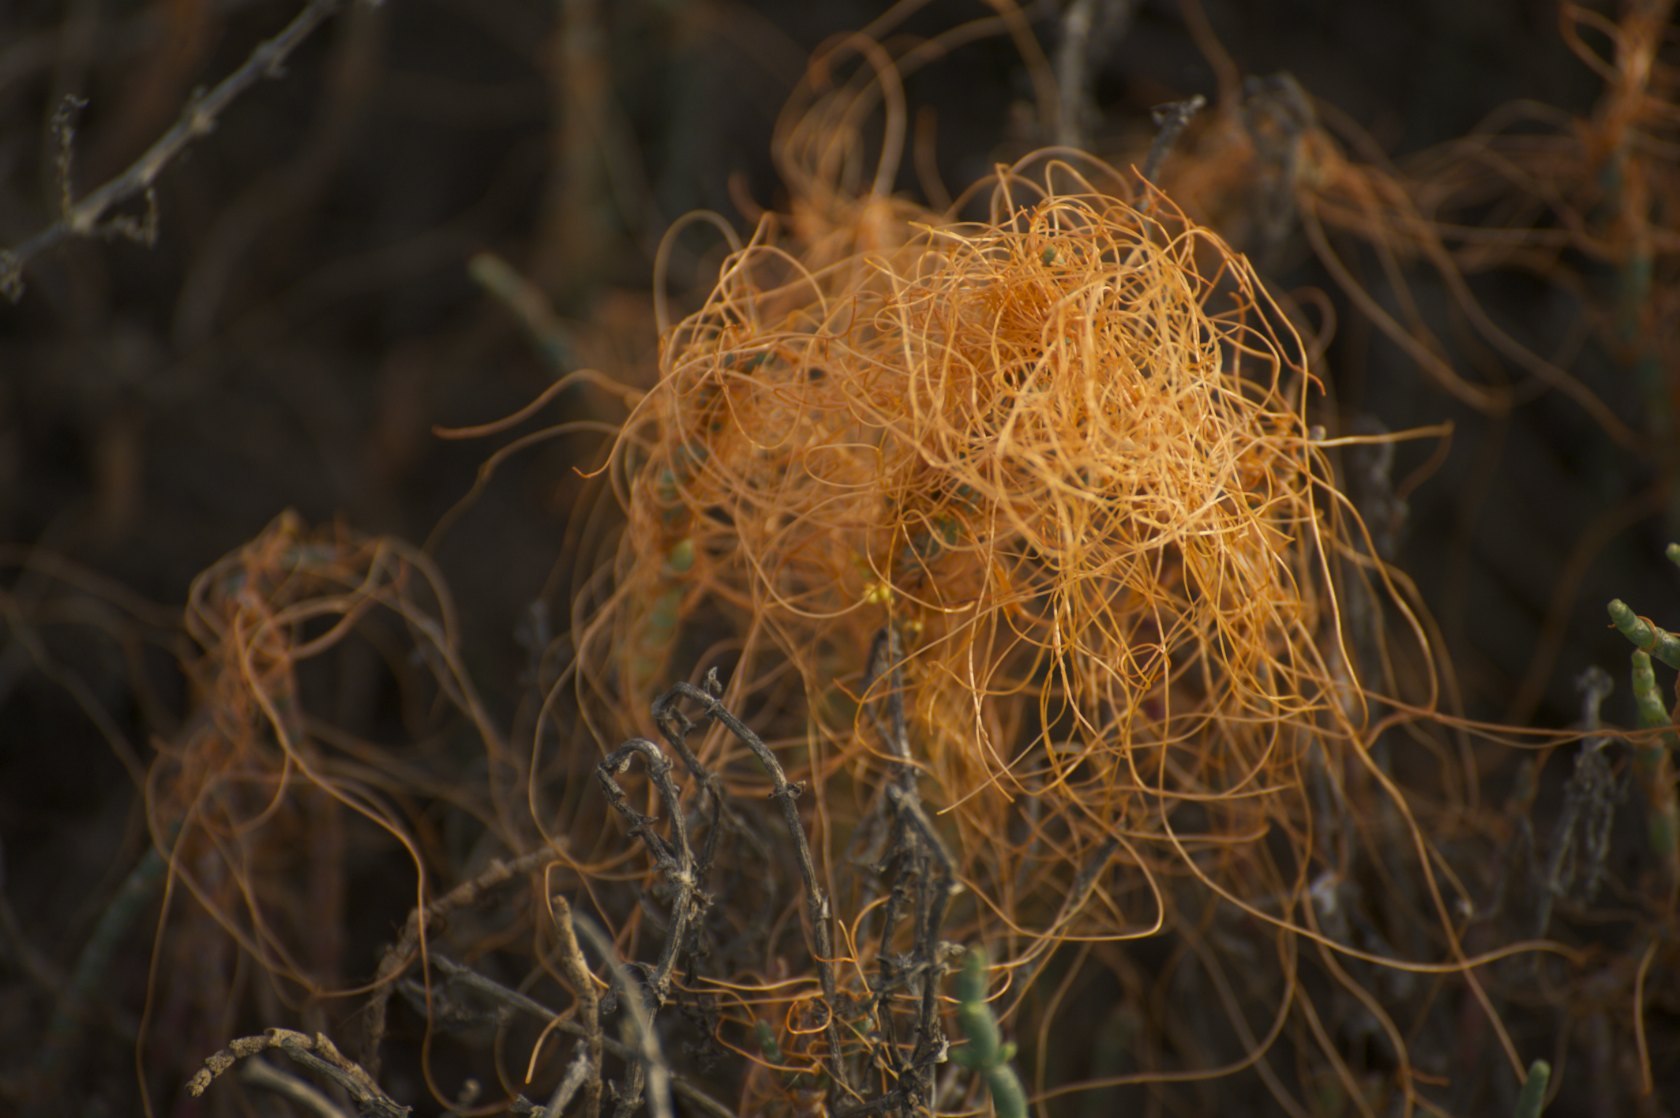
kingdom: Plantae
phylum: Tracheophyta
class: Magnoliopsida
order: Solanales
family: Convolvulaceae
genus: Cuscuta
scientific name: Cuscuta pacifica
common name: Large saltmarsh dodder
